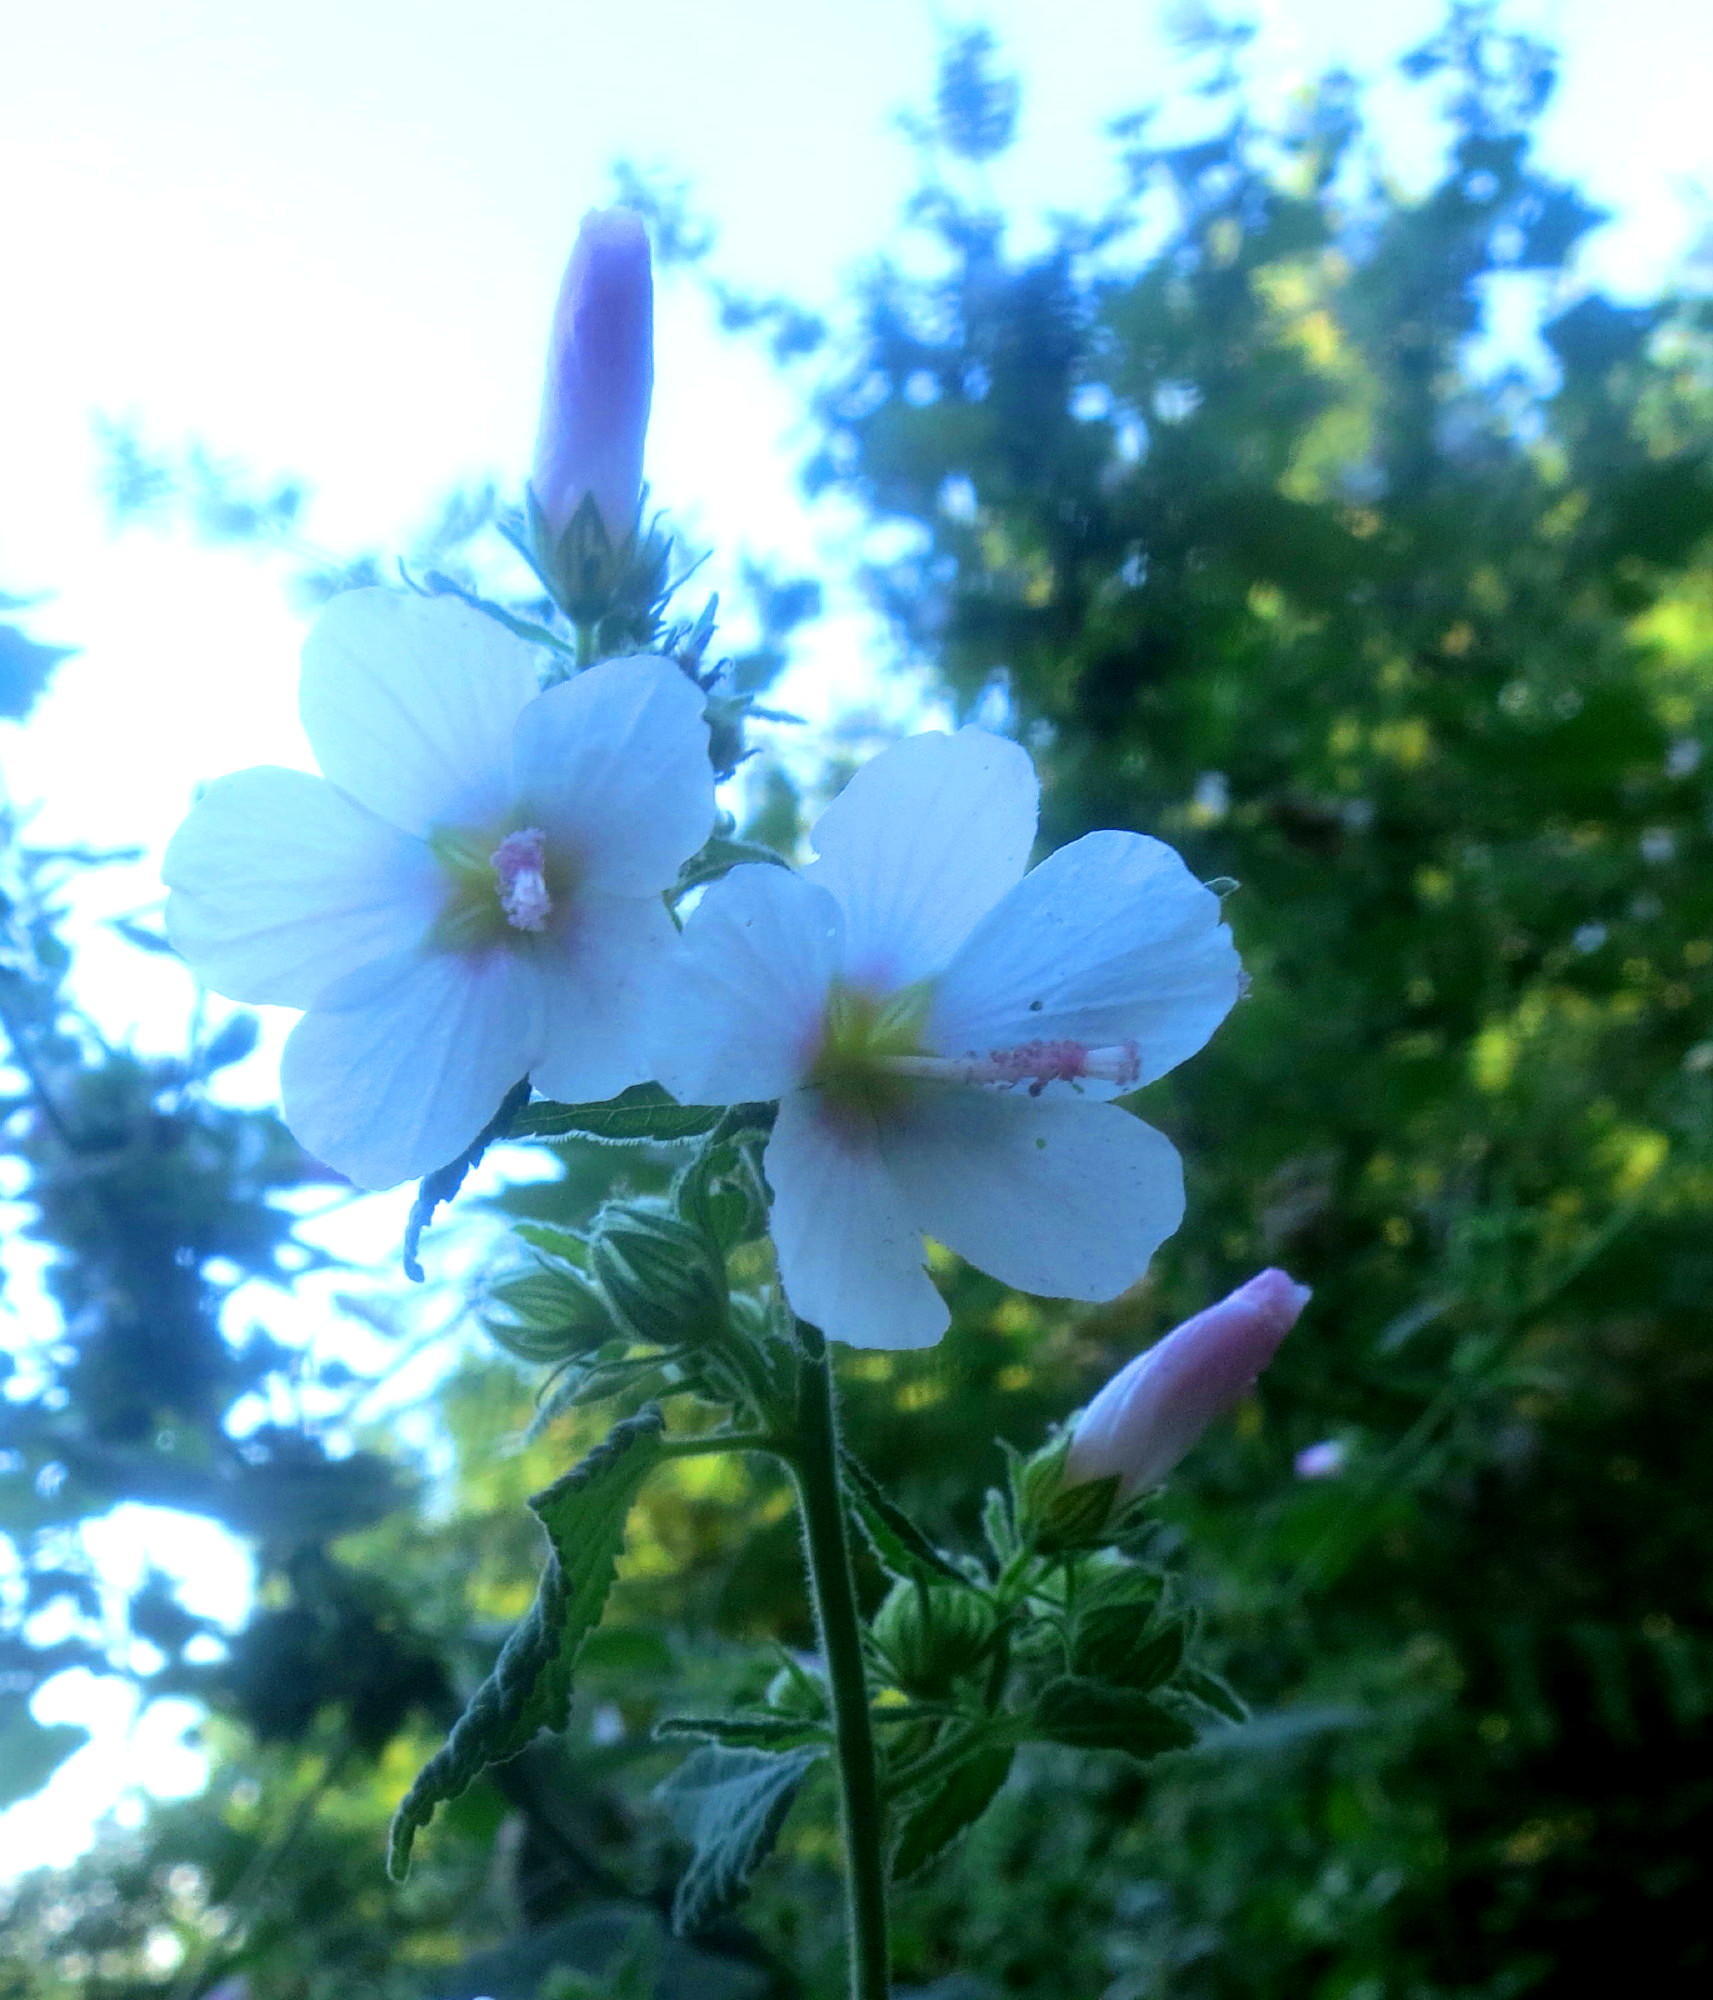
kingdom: Plantae
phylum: Tracheophyta
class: Magnoliopsida
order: Malvales
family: Malvaceae
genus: Pavonia
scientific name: Pavonia columella
